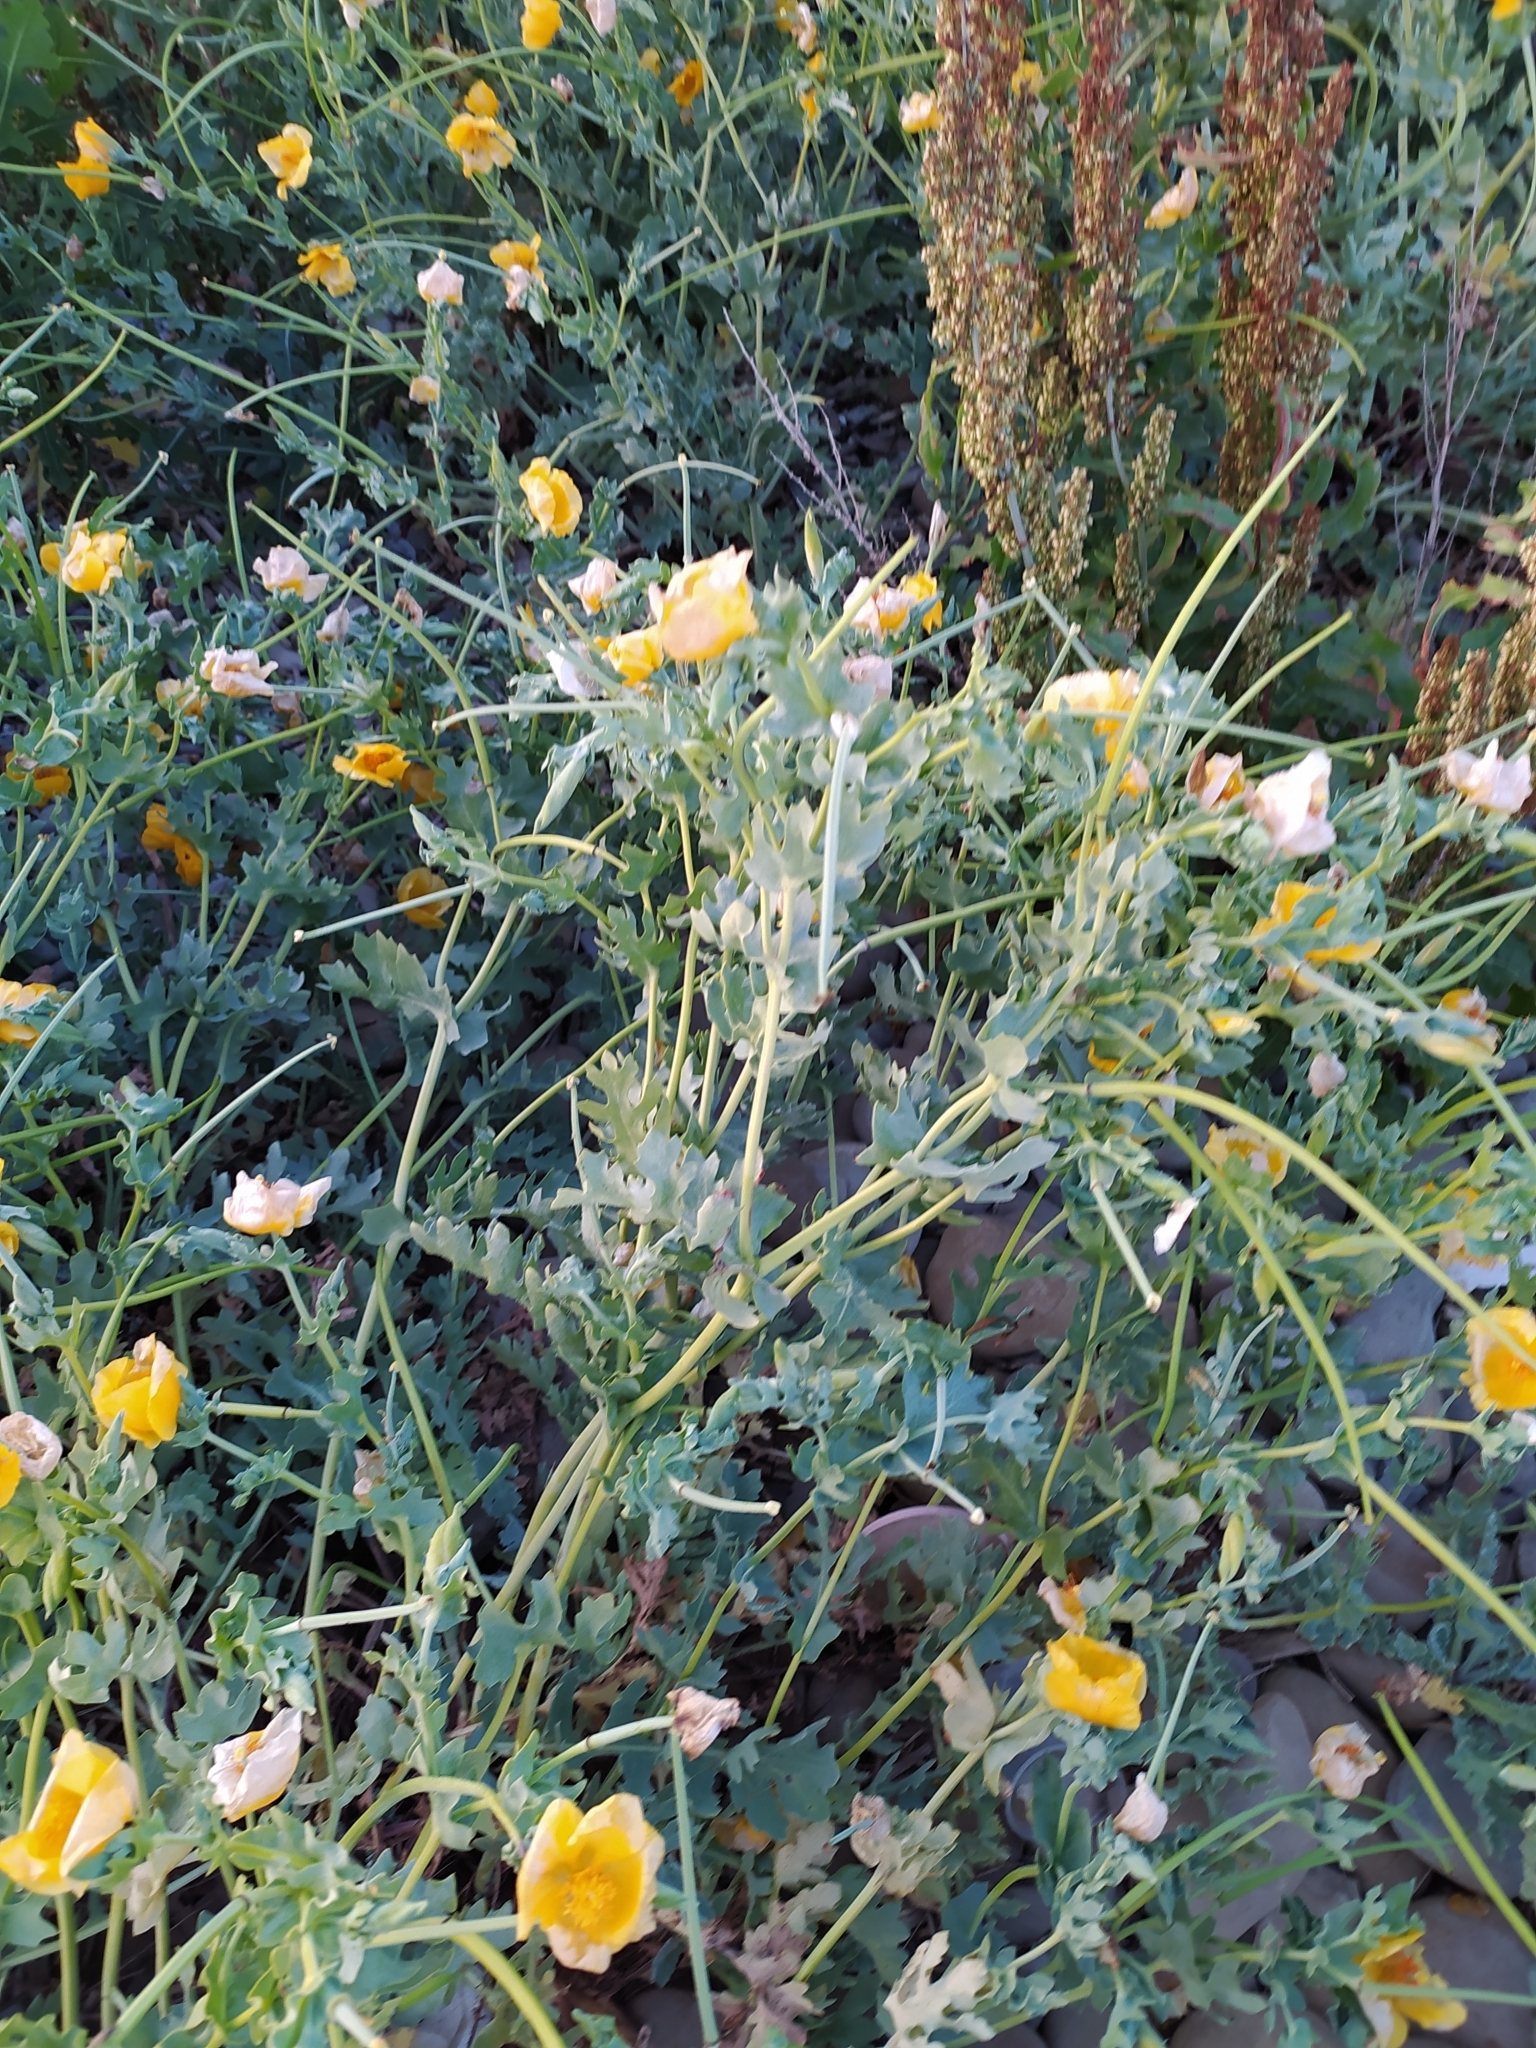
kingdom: Plantae
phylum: Tracheophyta
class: Magnoliopsida
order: Ranunculales
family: Papaveraceae
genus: Glaucium
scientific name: Glaucium flavum
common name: Yellow horned-poppy
